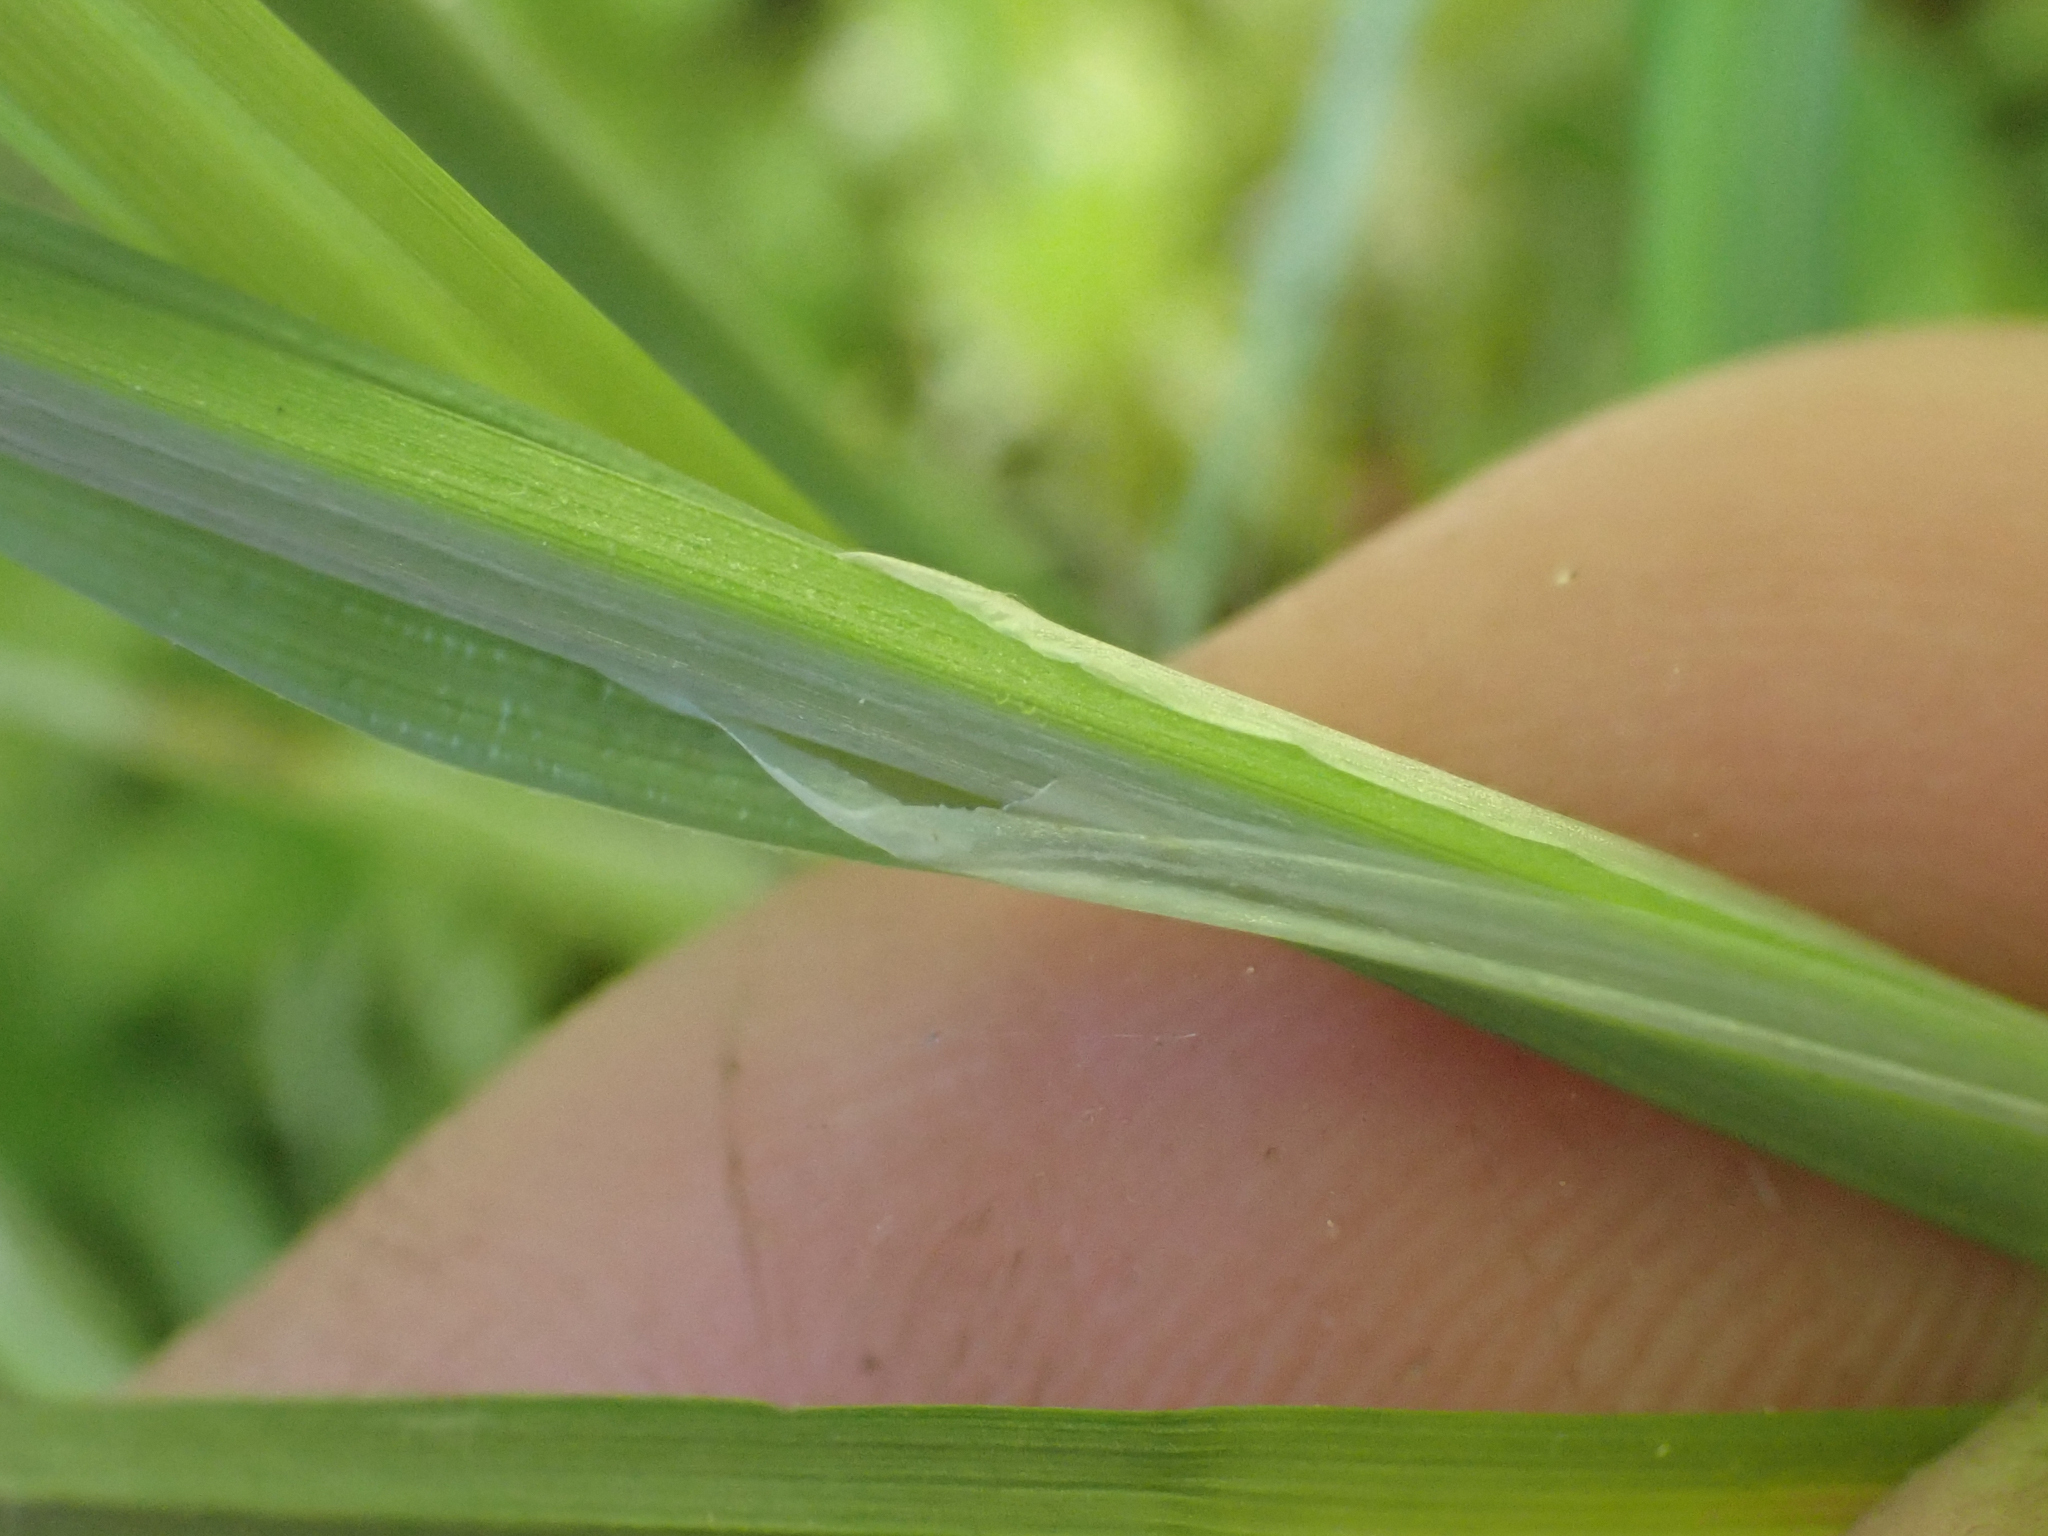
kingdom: Plantae
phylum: Tracheophyta
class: Liliopsida
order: Poales
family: Cyperaceae
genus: Carex
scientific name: Carex magellanica
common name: Bog sedge
